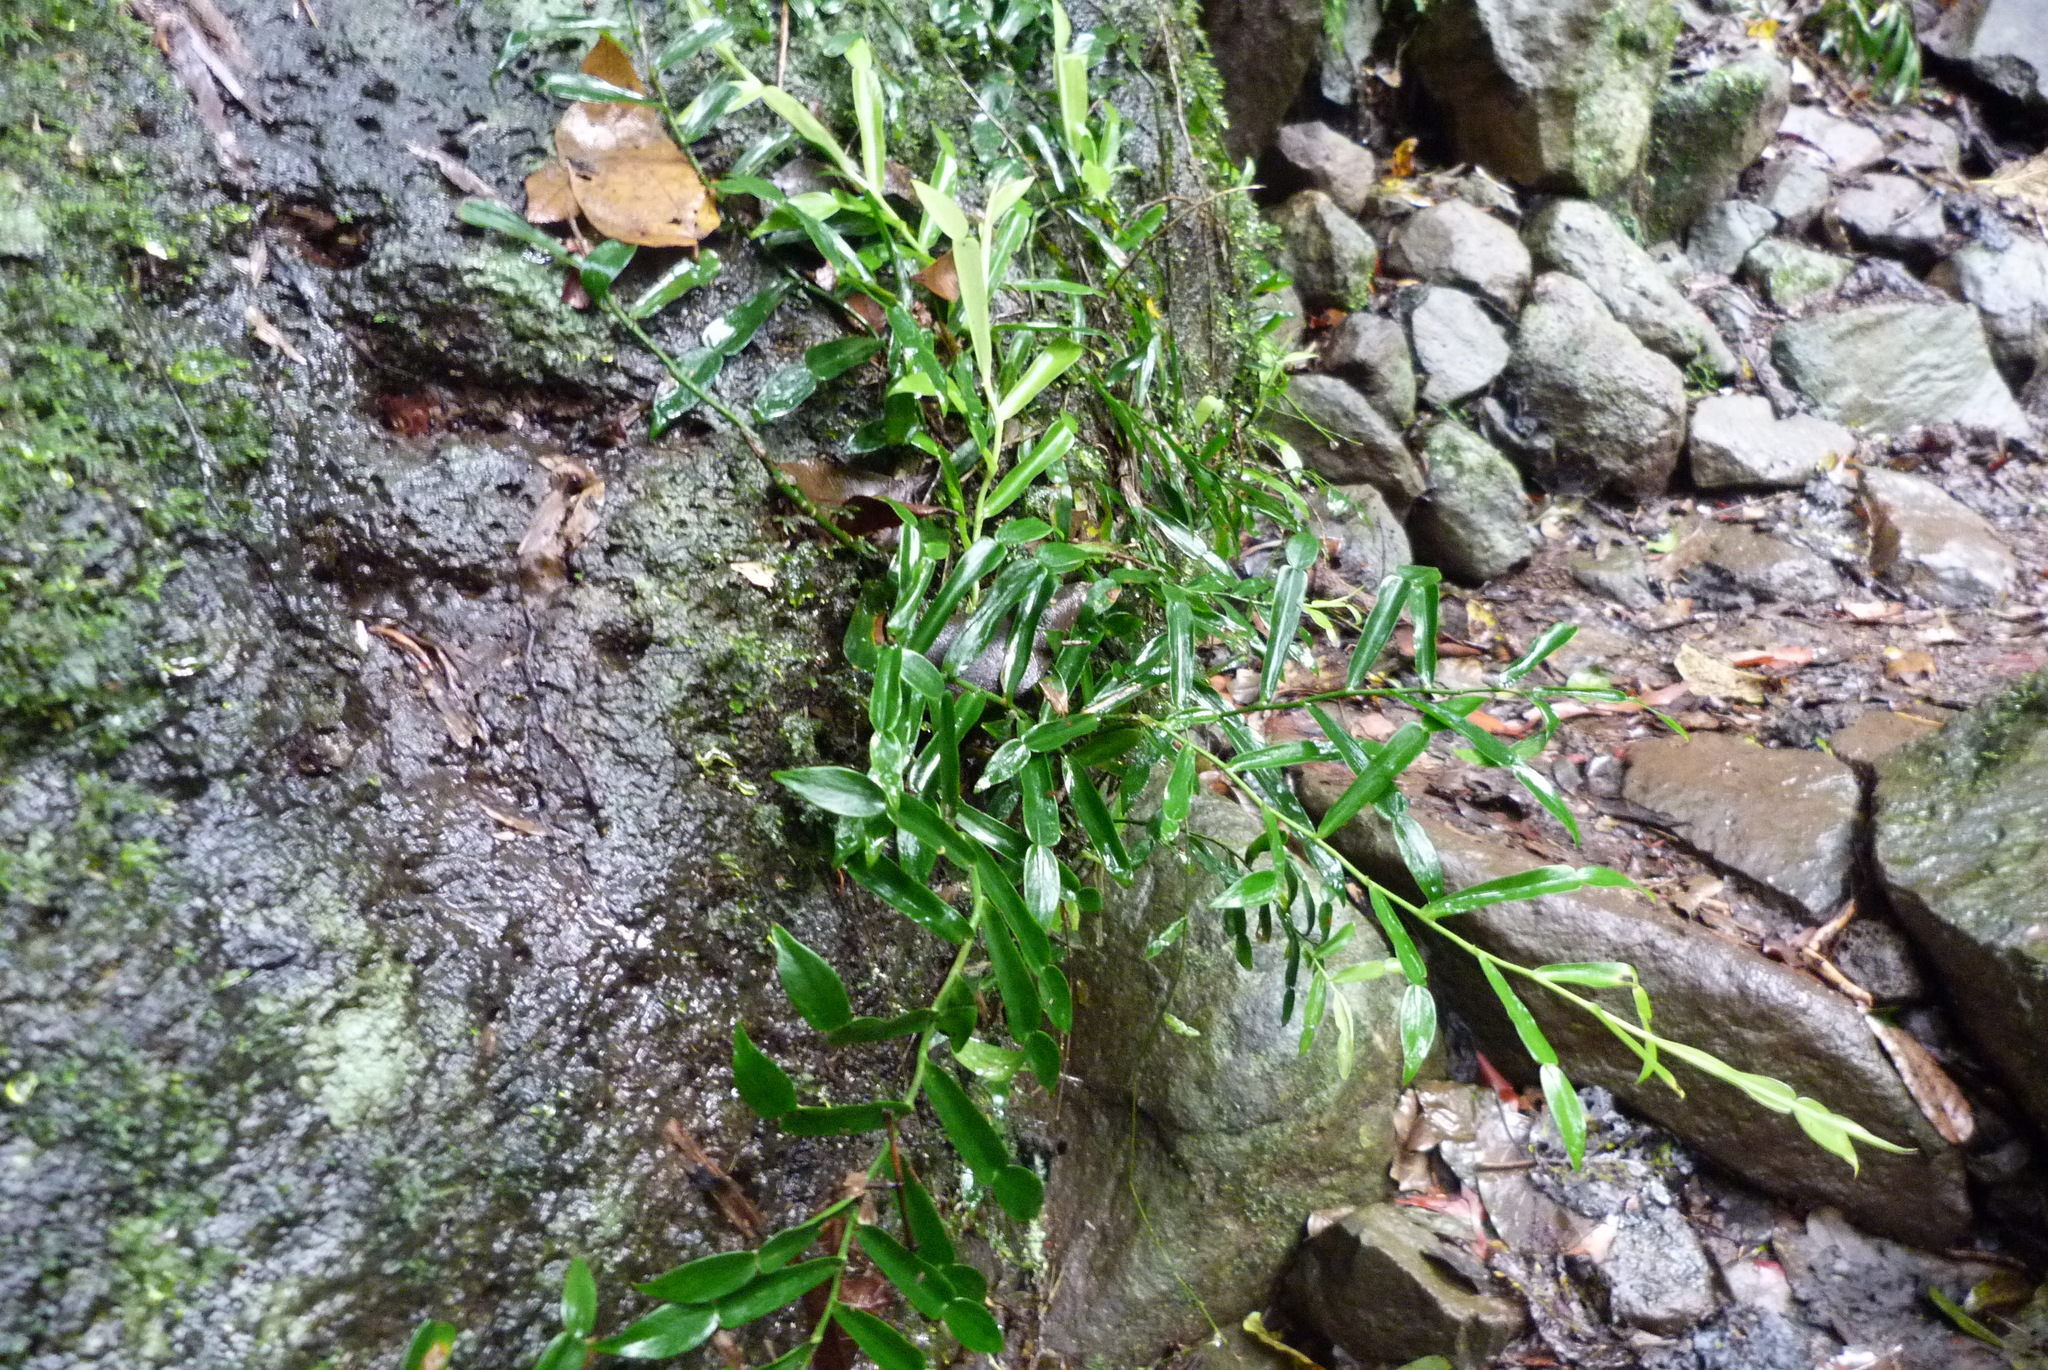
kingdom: Plantae
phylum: Tracheophyta
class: Liliopsida
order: Alismatales
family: Araceae
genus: Pothos
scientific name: Pothos longipes
